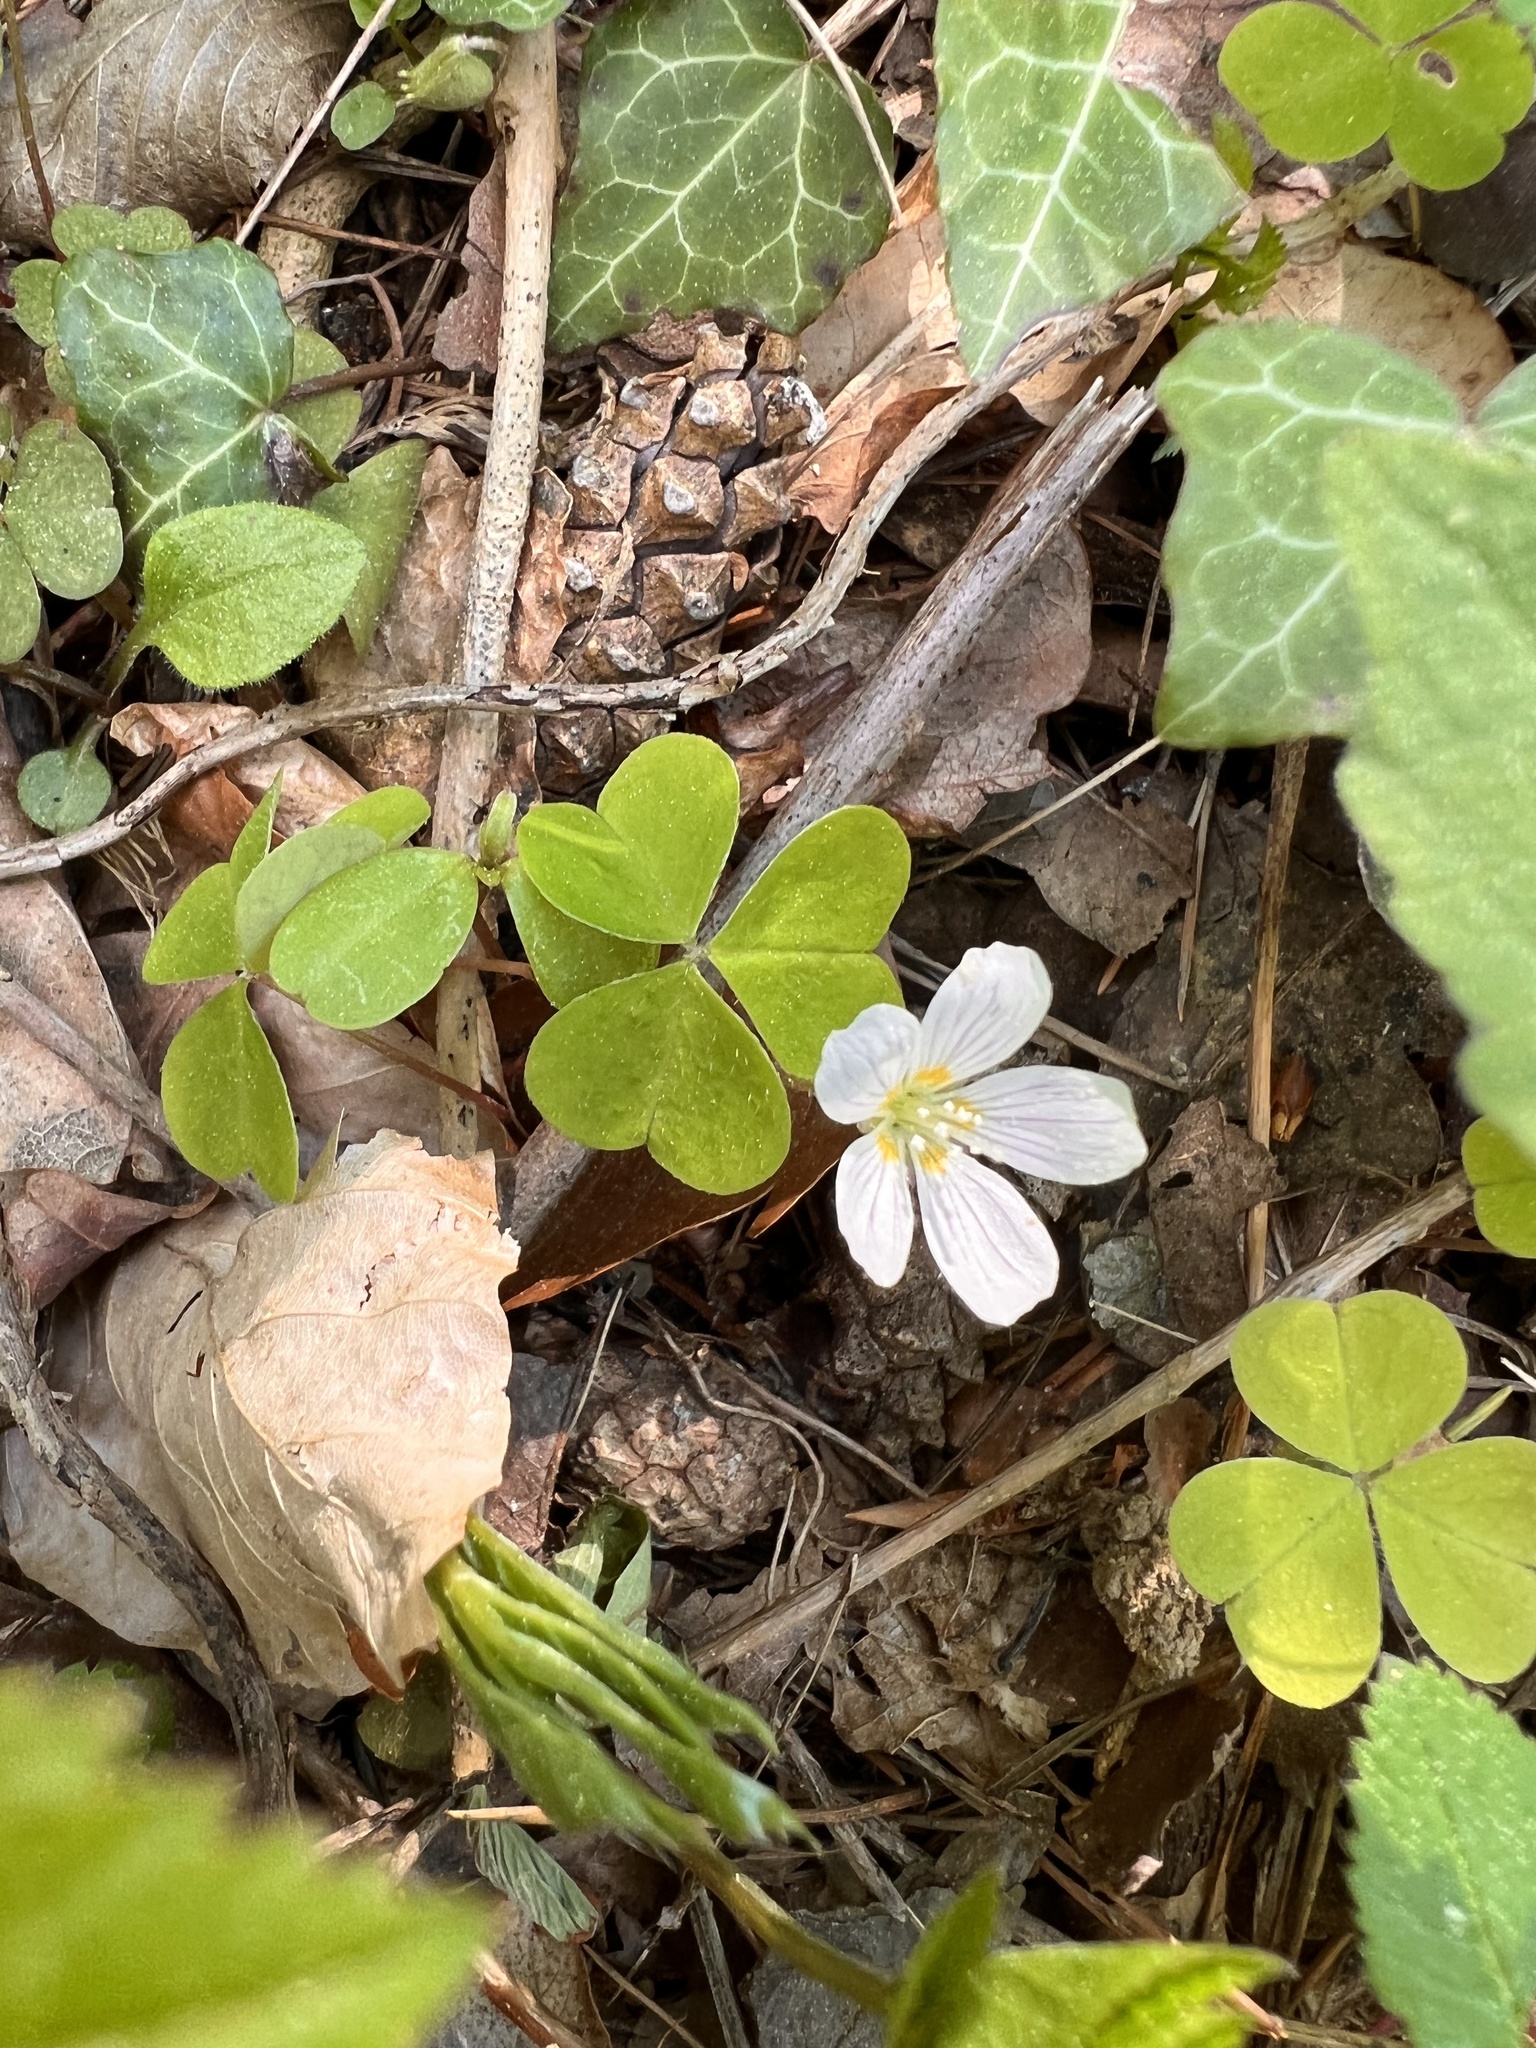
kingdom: Plantae
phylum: Tracheophyta
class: Magnoliopsida
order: Oxalidales
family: Oxalidaceae
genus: Oxalis
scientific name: Oxalis acetosella
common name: Wood-sorrel
